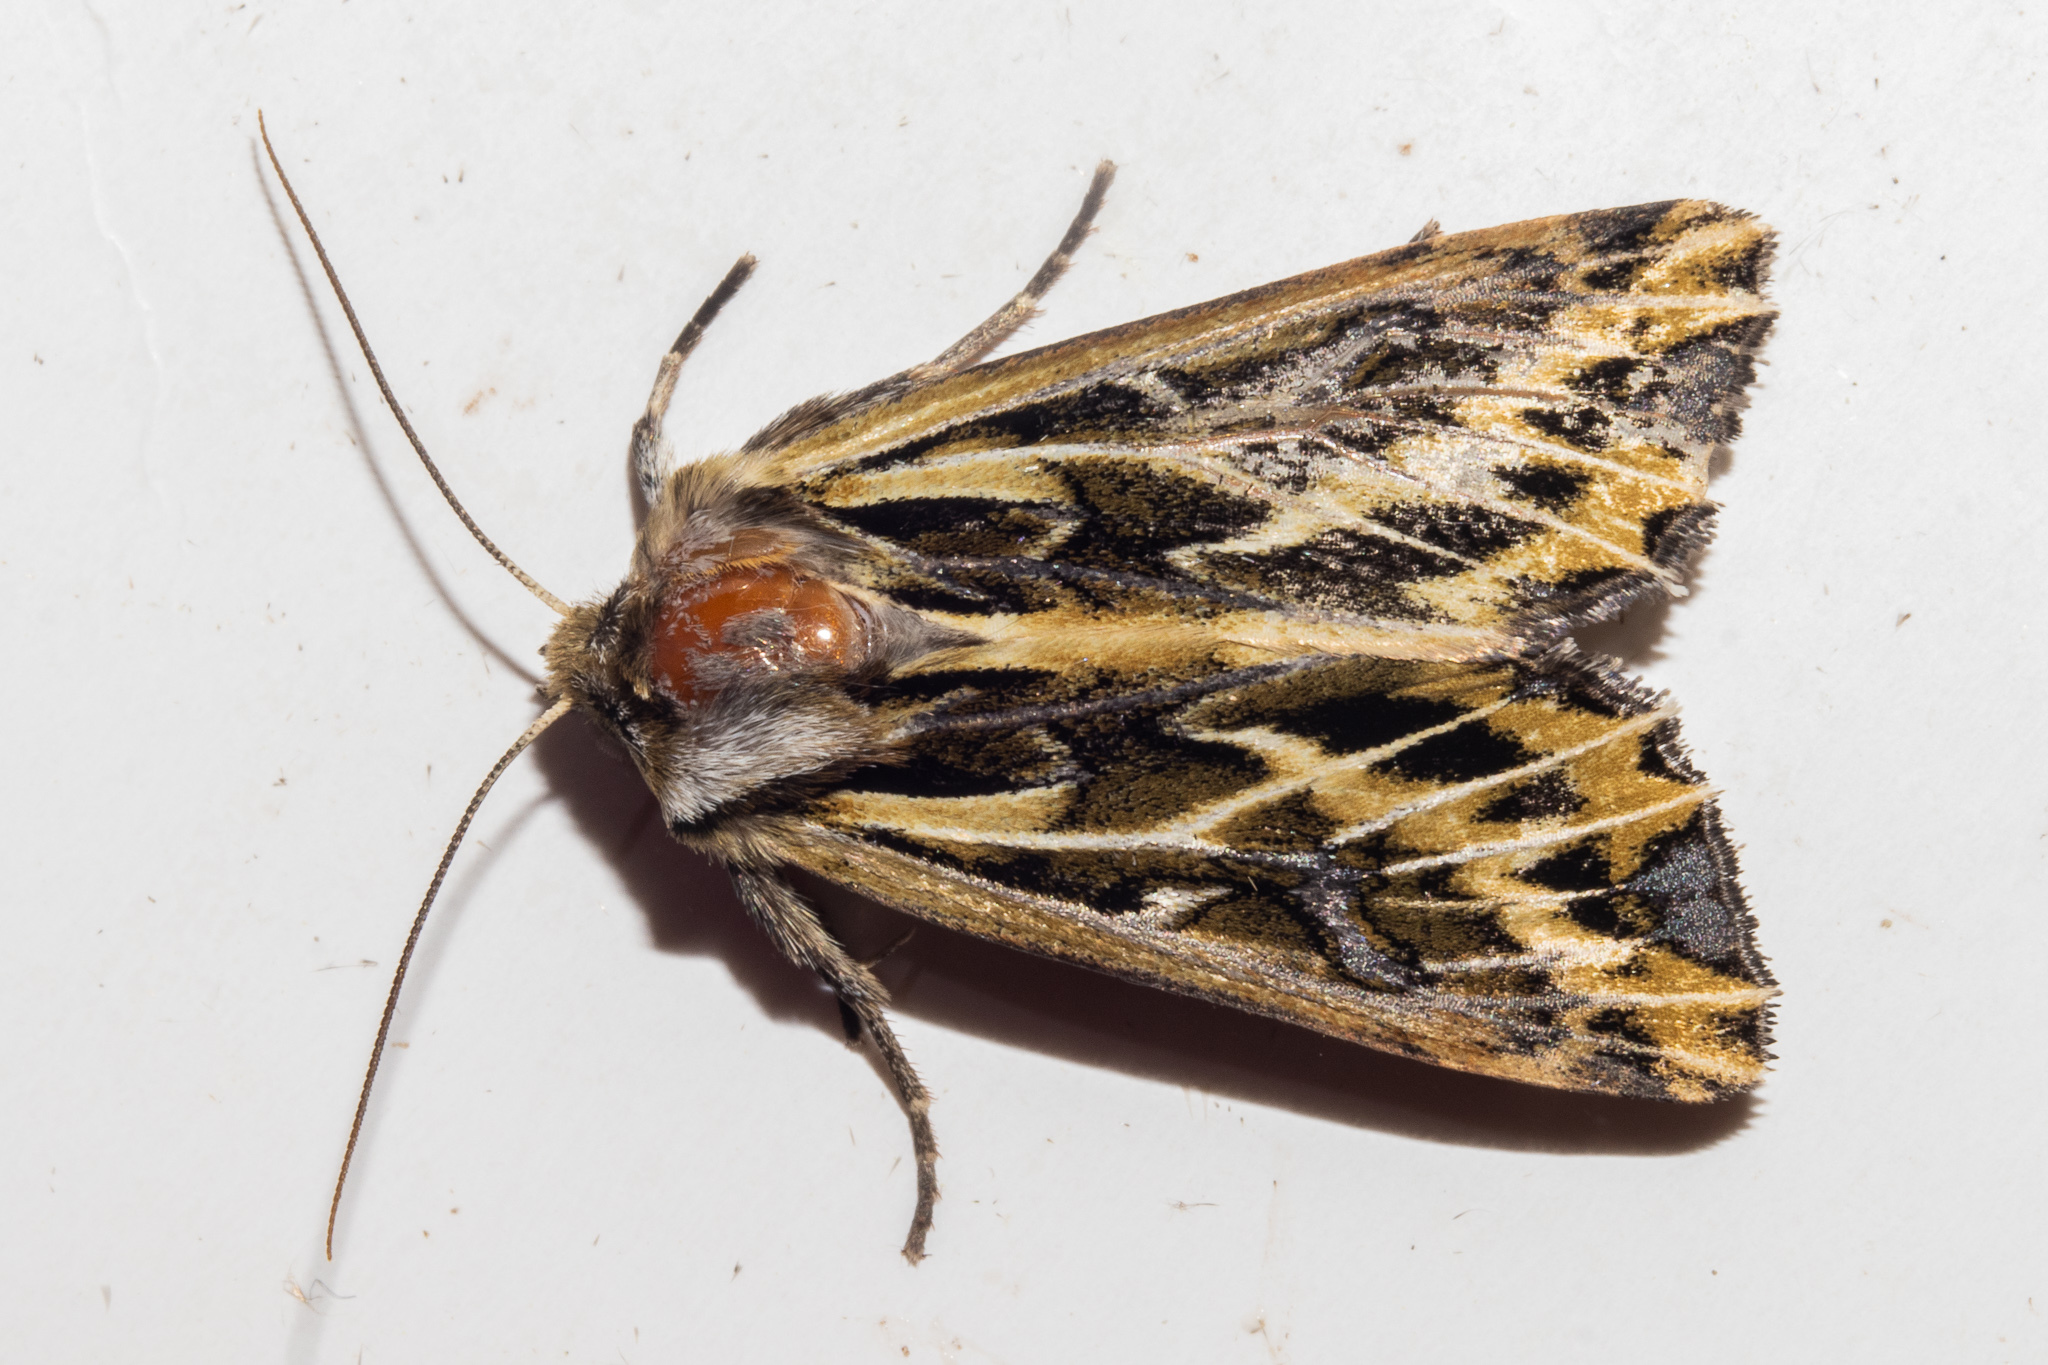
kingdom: Animalia
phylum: Arthropoda
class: Insecta
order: Lepidoptera
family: Noctuidae
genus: Ichneutica
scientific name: Ichneutica
